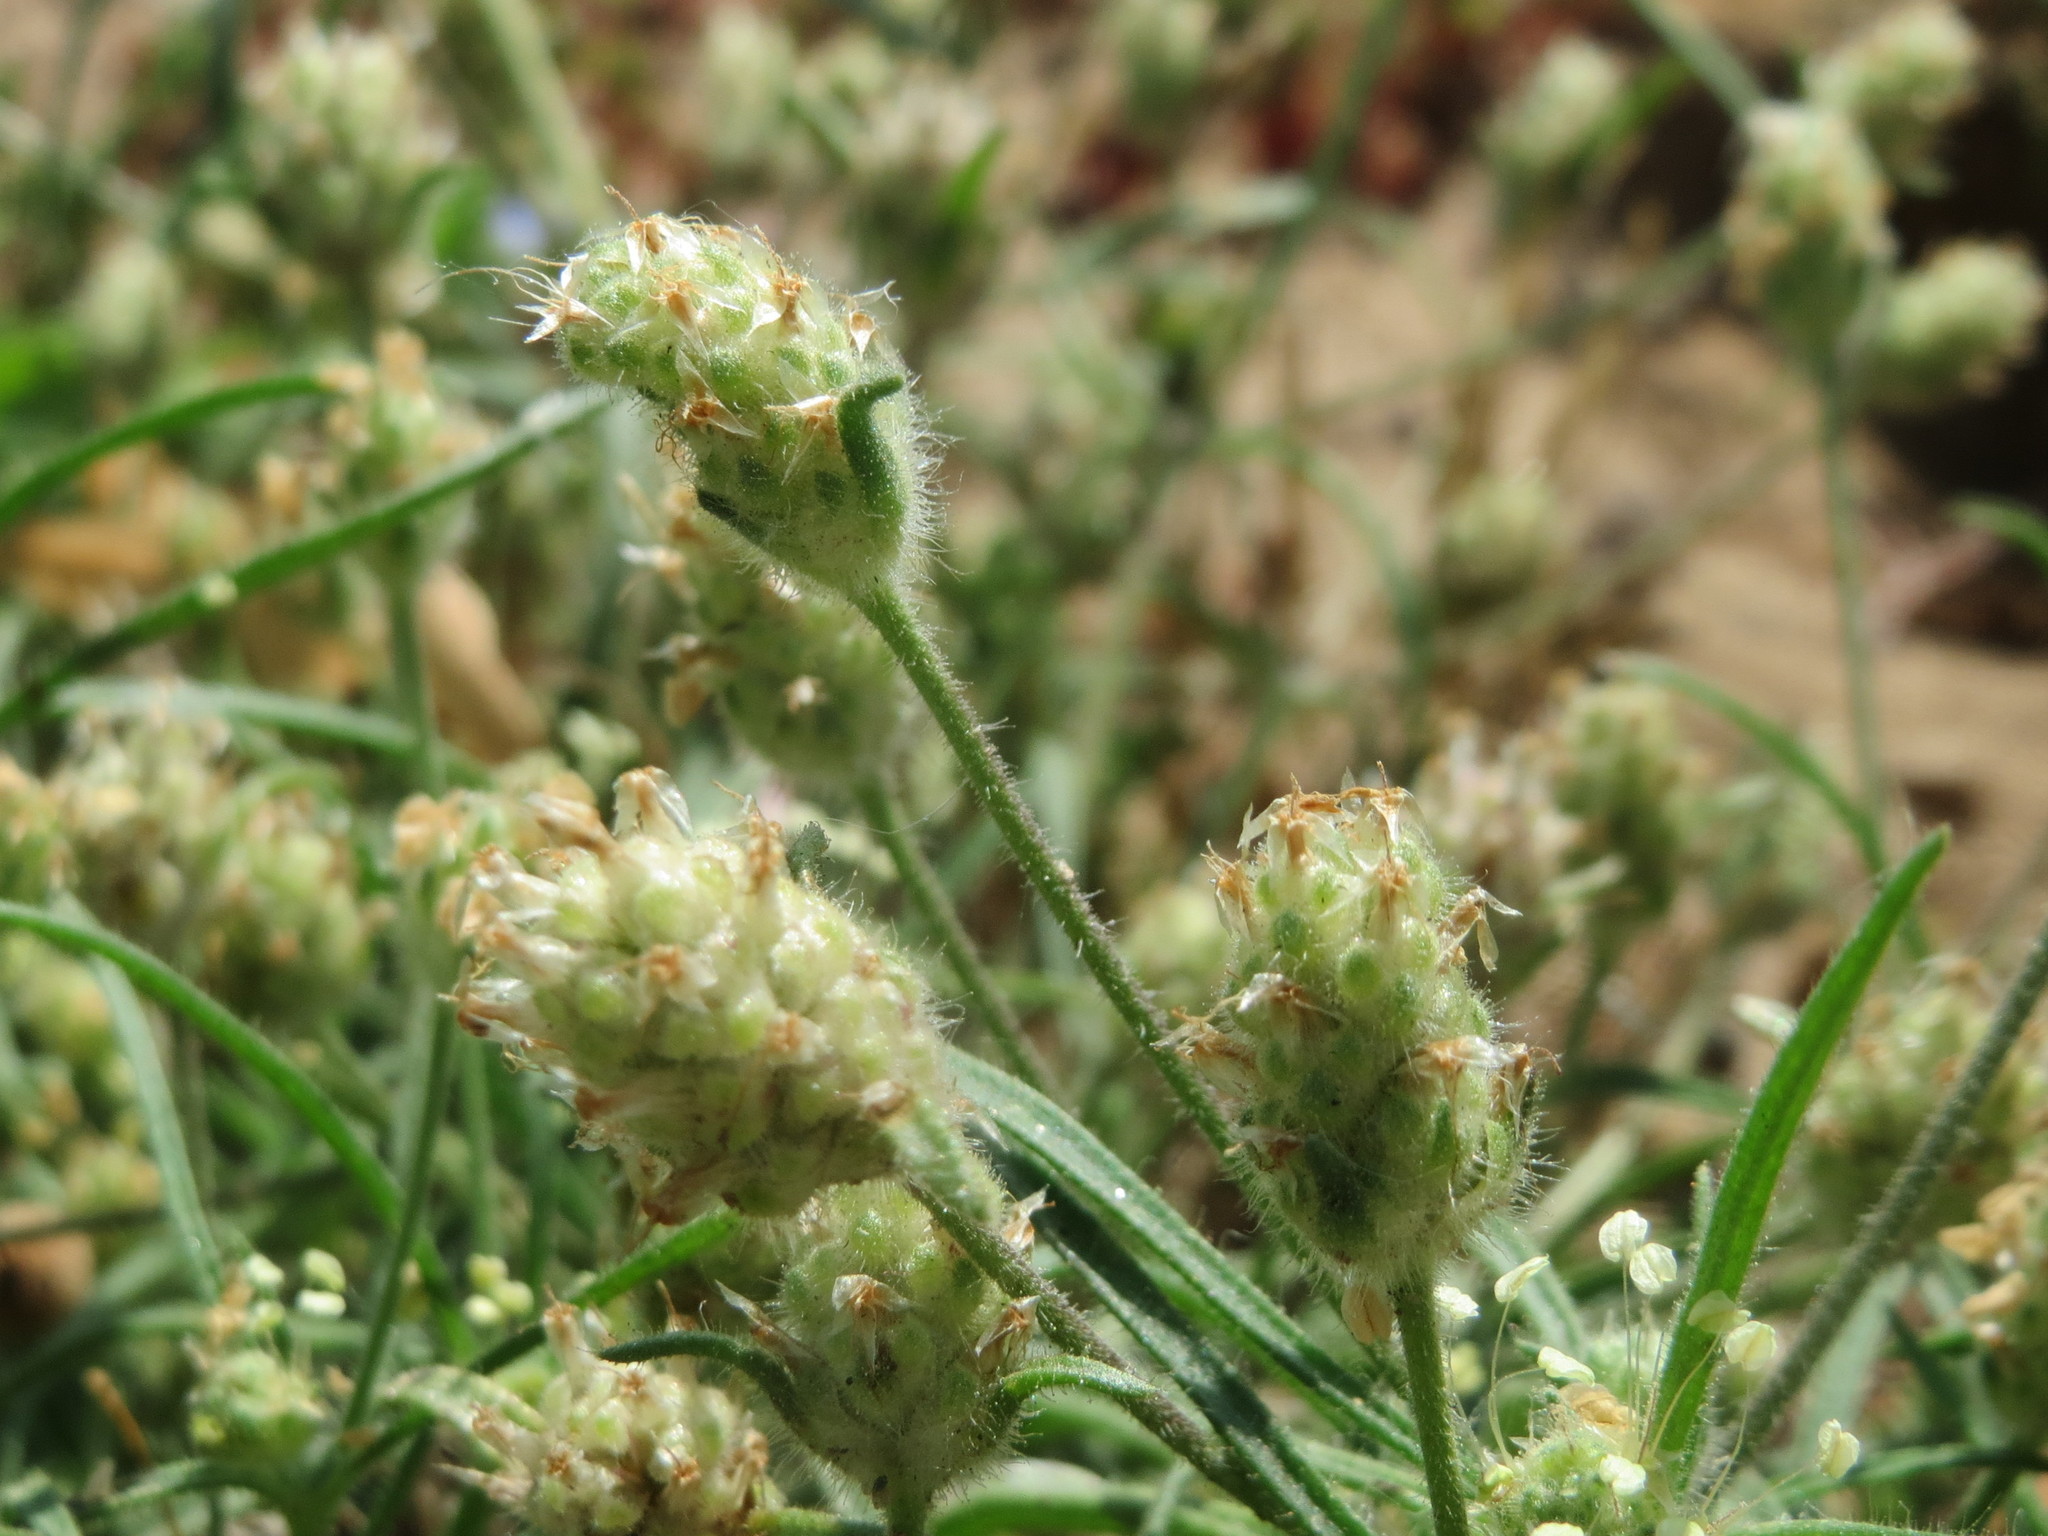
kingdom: Plantae
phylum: Tracheophyta
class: Magnoliopsida
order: Lamiales
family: Plantaginaceae
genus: Plantago
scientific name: Plantago arenaria
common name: Branched plantain
